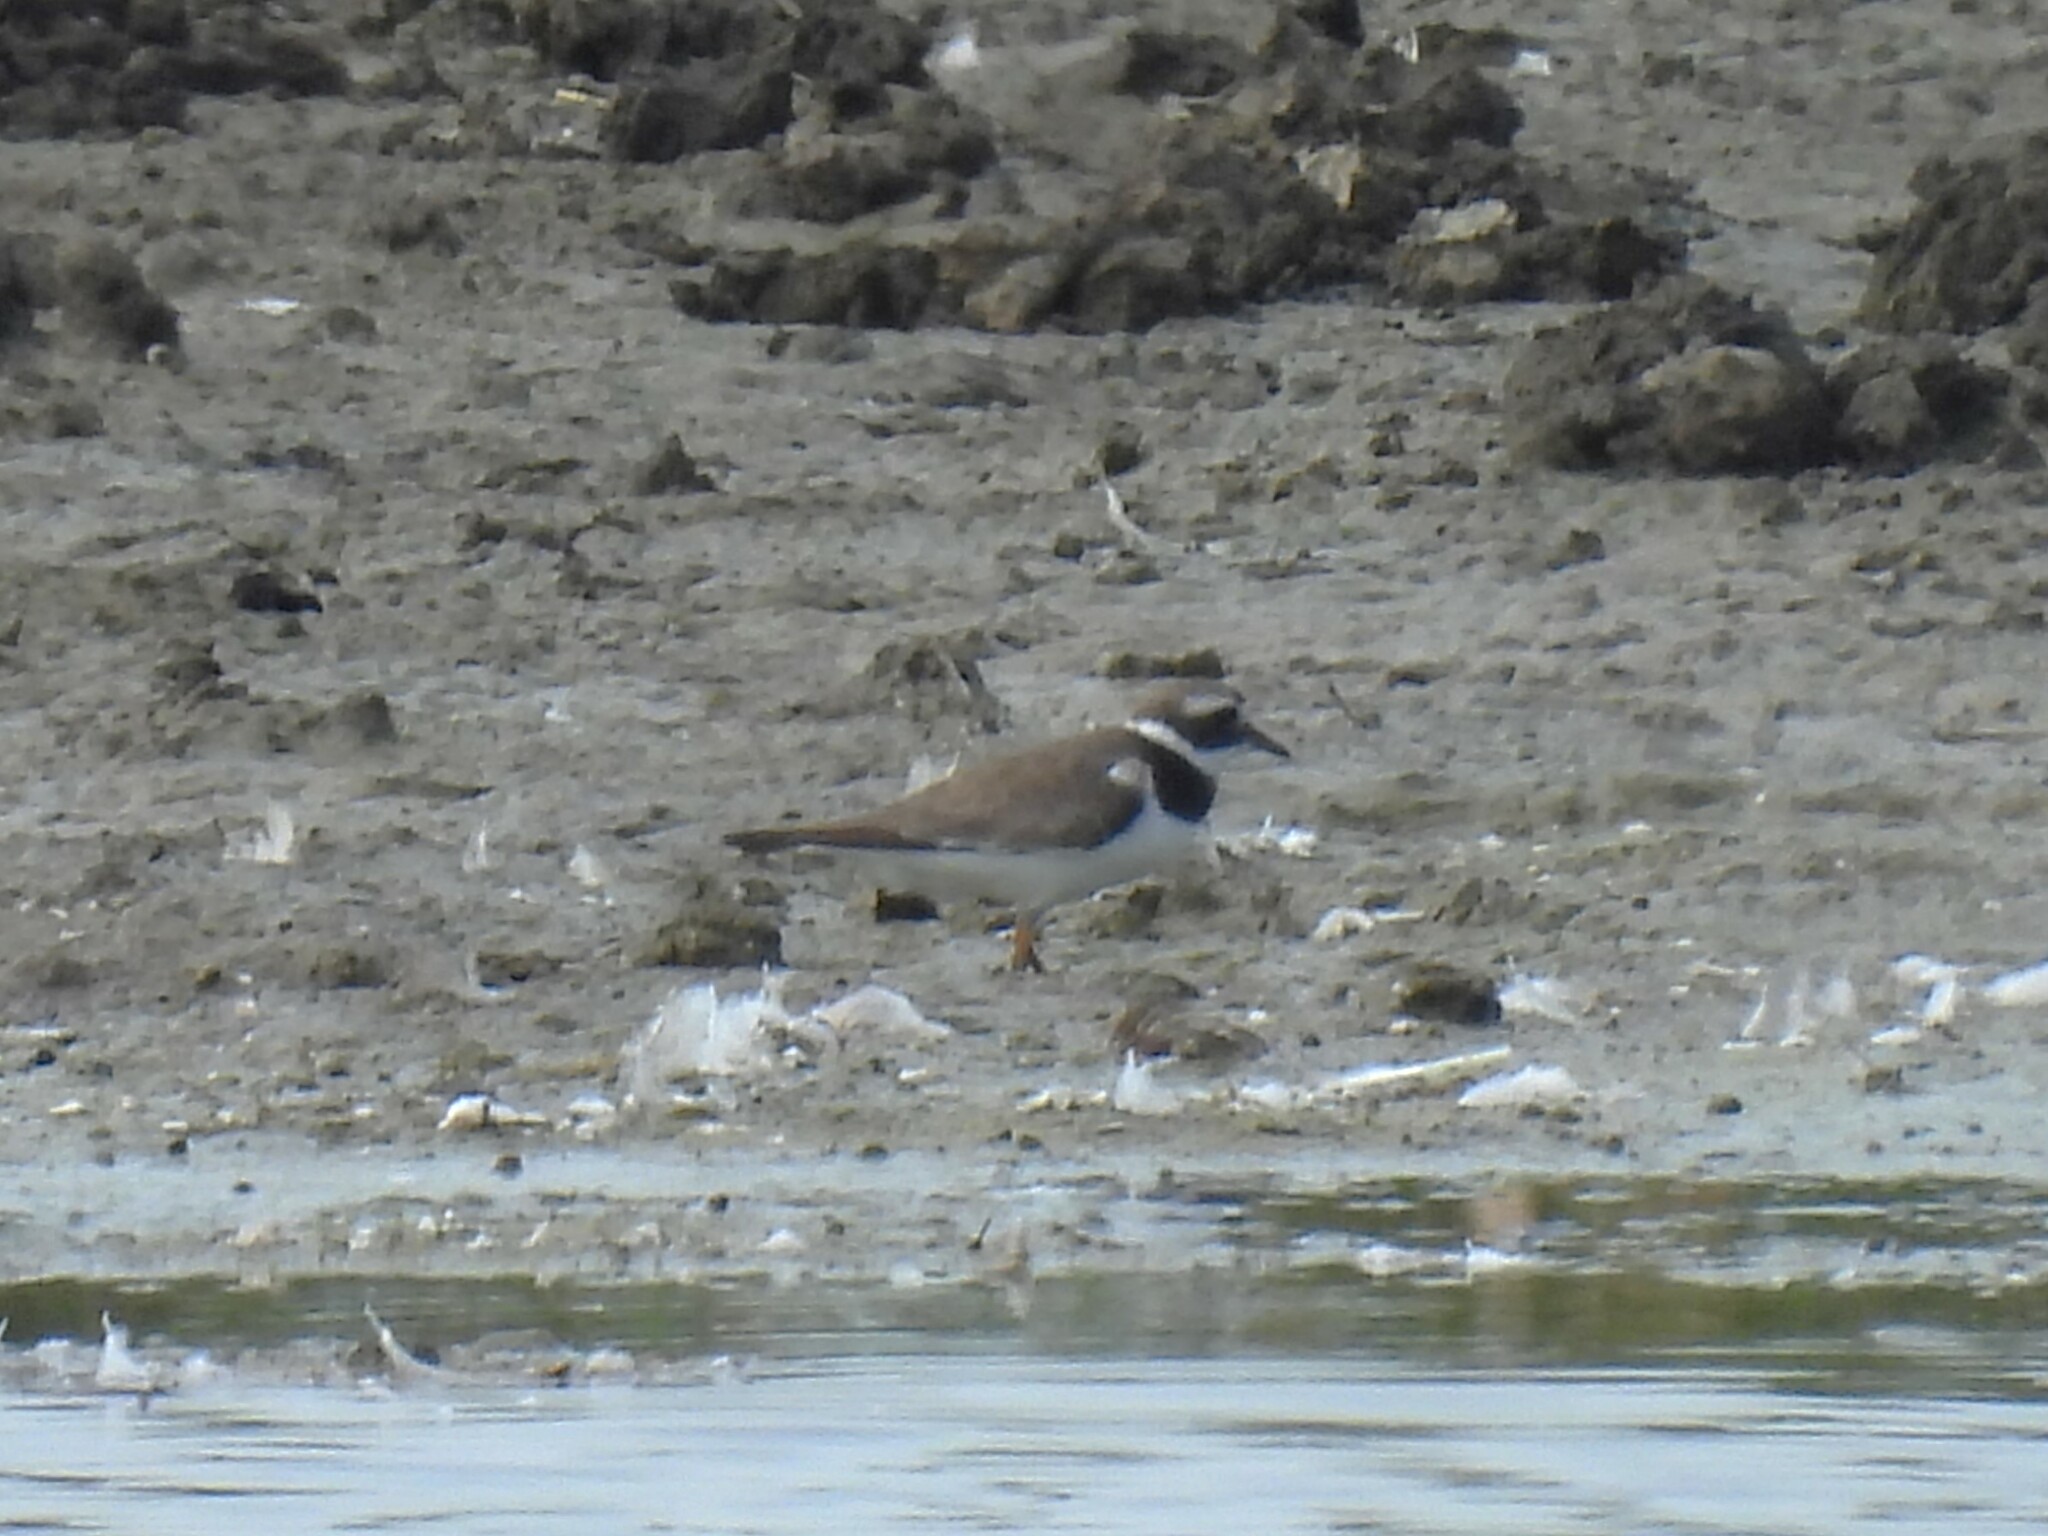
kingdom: Animalia
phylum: Chordata
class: Aves
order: Charadriiformes
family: Charadriidae
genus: Charadrius
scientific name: Charadrius hiaticula
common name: Common ringed plover
